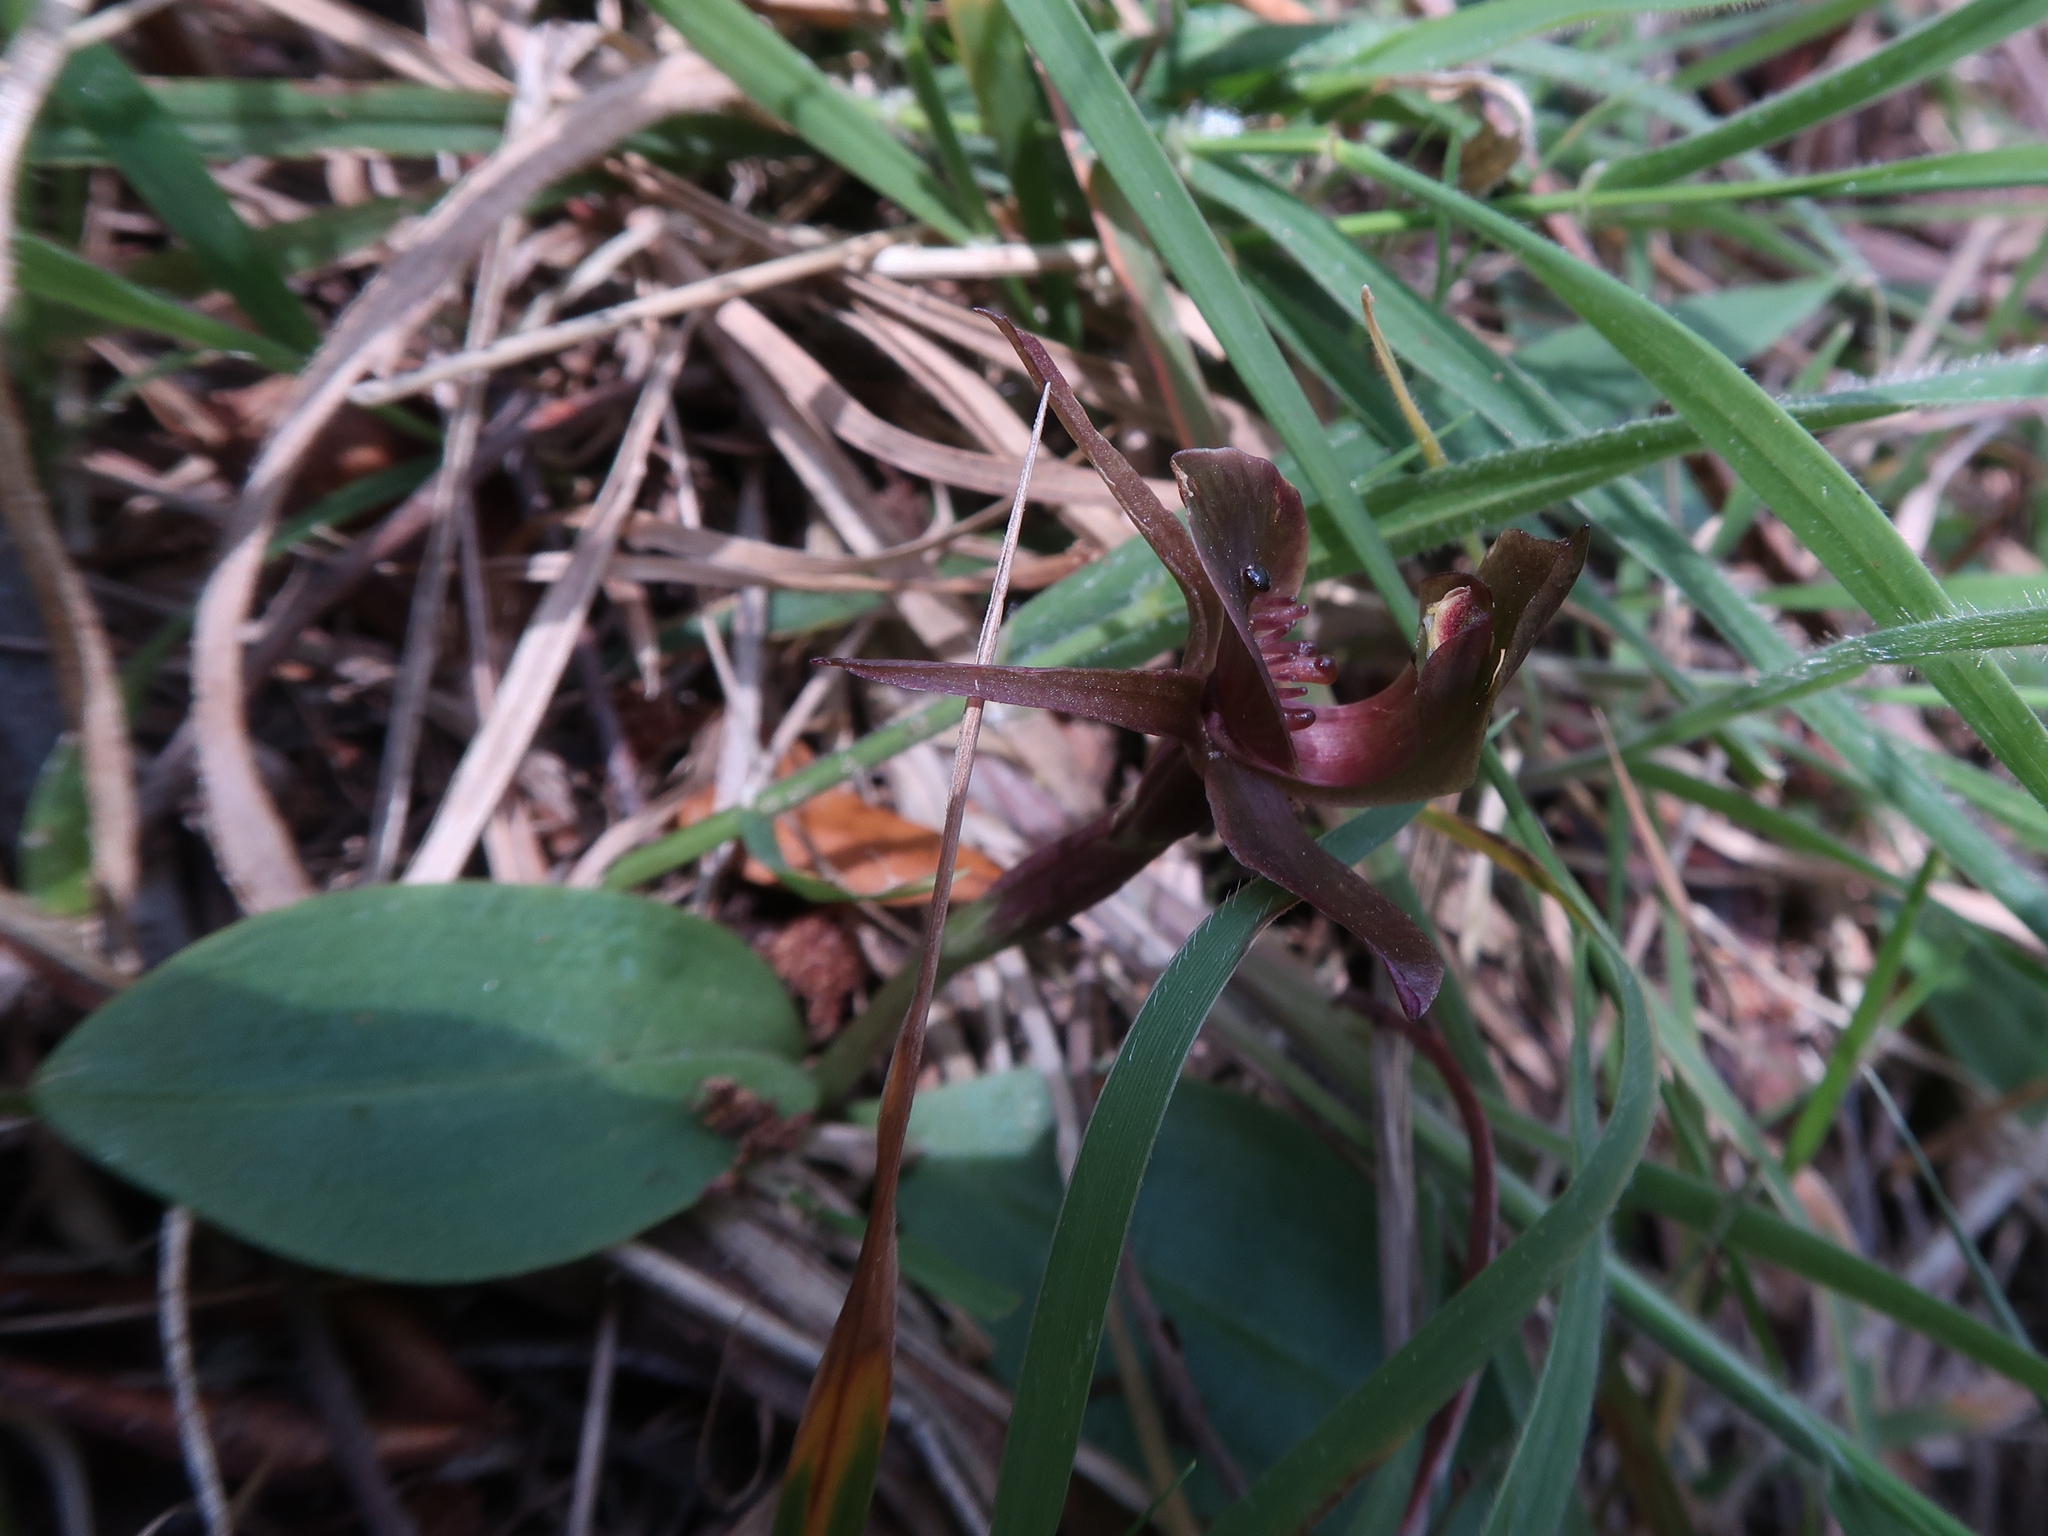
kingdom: Plantae
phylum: Tracheophyta
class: Liliopsida
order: Asparagales
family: Orchidaceae
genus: Chiloglottis
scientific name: Chiloglottis triceratops
